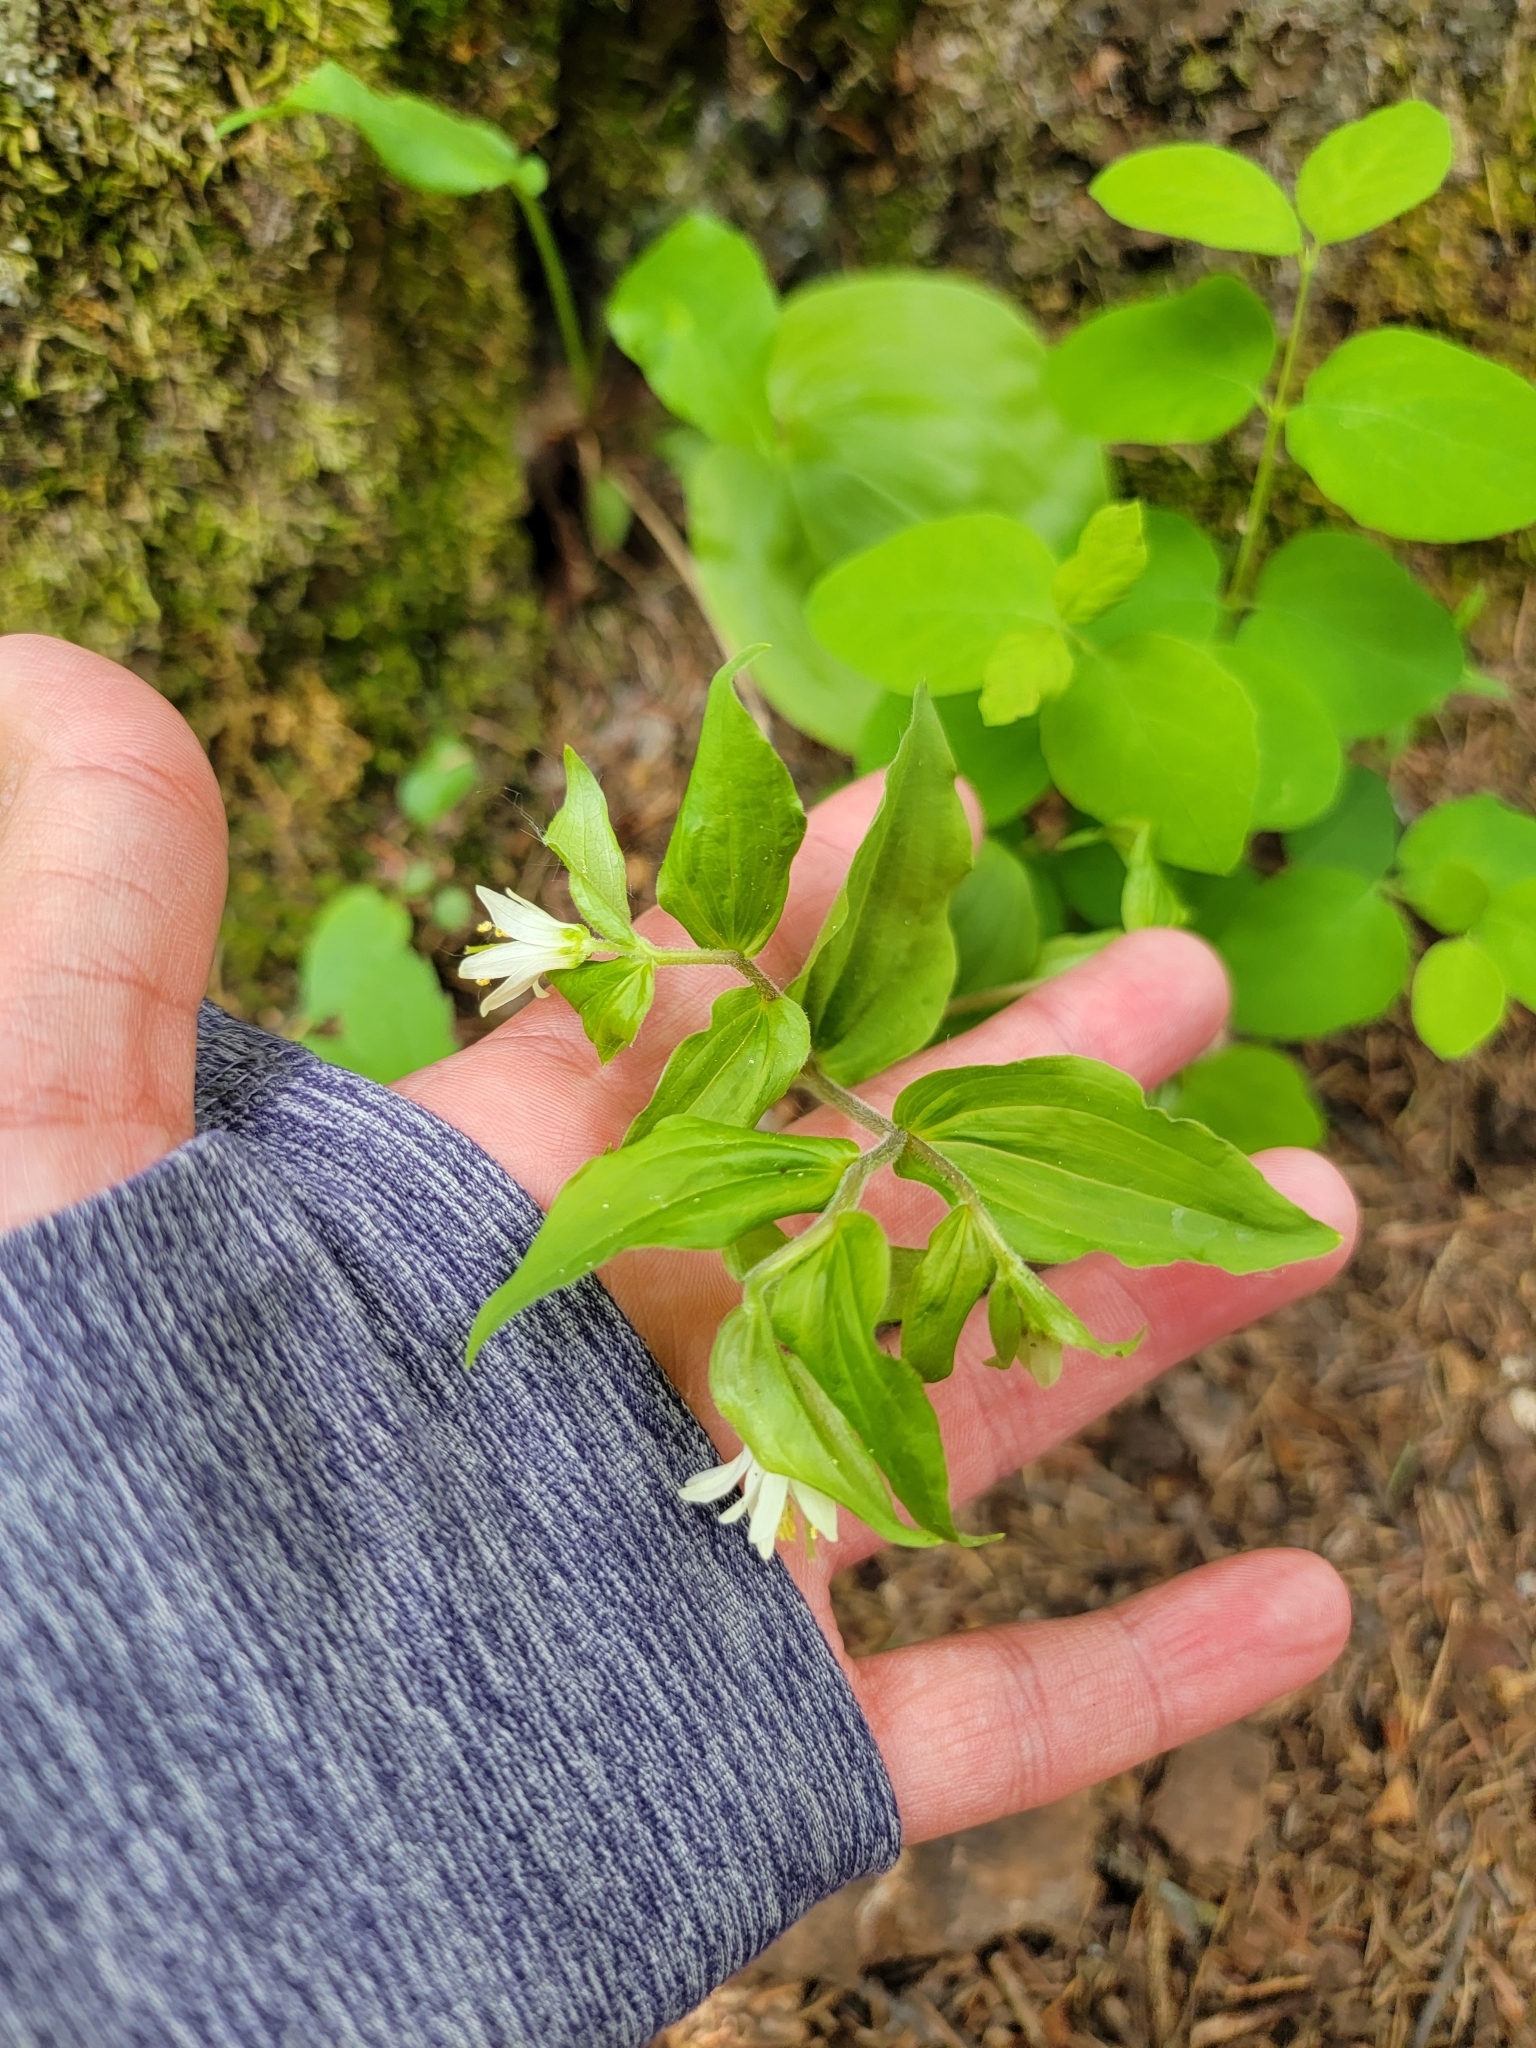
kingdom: Plantae
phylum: Tracheophyta
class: Liliopsida
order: Liliales
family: Liliaceae
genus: Prosartes
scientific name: Prosartes trachycarpa
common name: Rough-fruit fairy-bells
